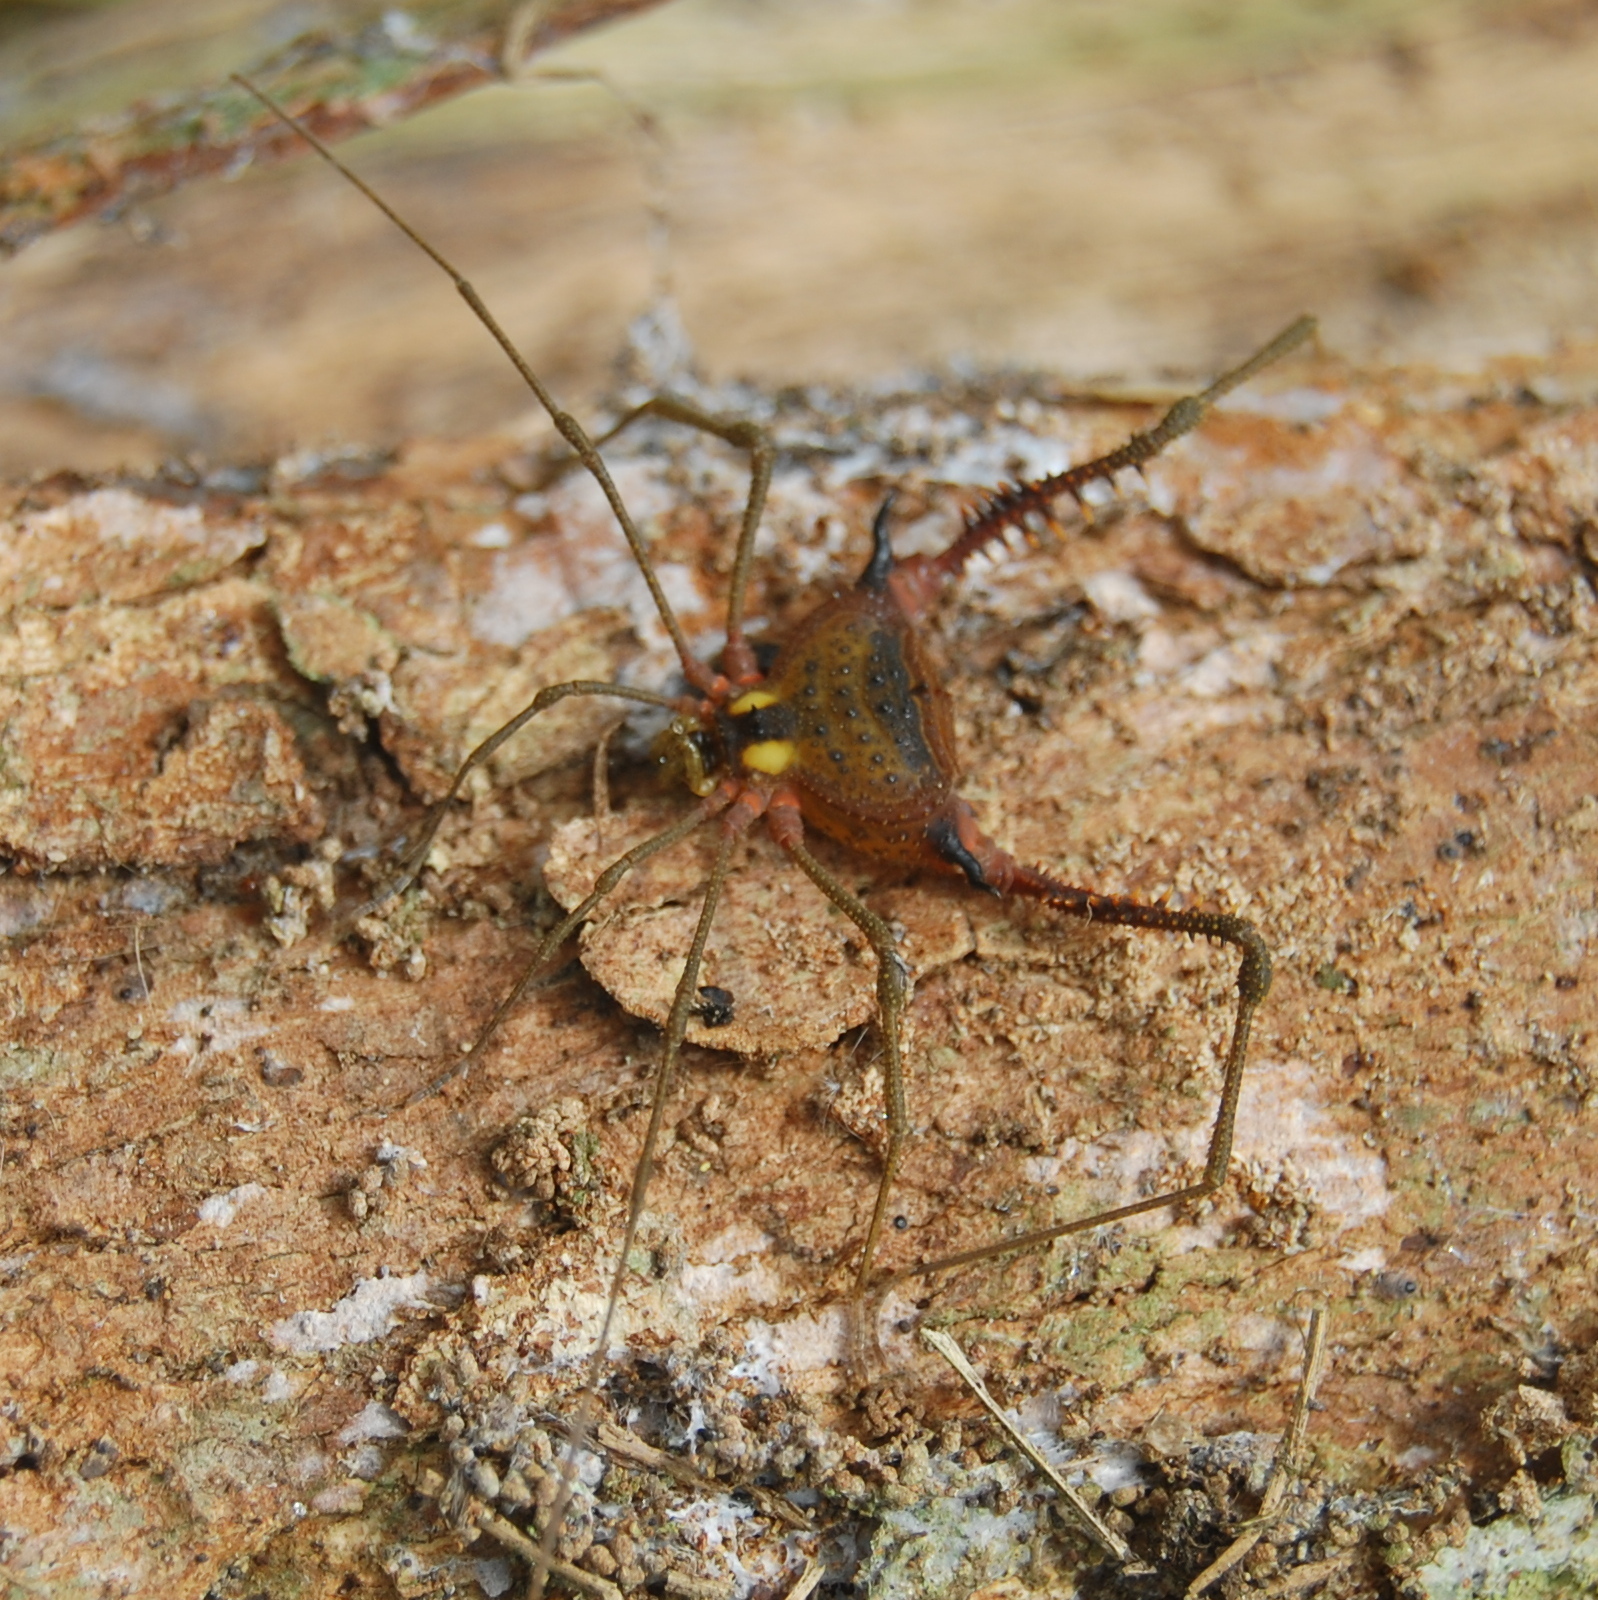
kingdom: Animalia
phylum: Arthropoda
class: Arachnida
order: Opiliones
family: Gonyleptidae
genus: Parampheres
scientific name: Parampheres pectinatus
